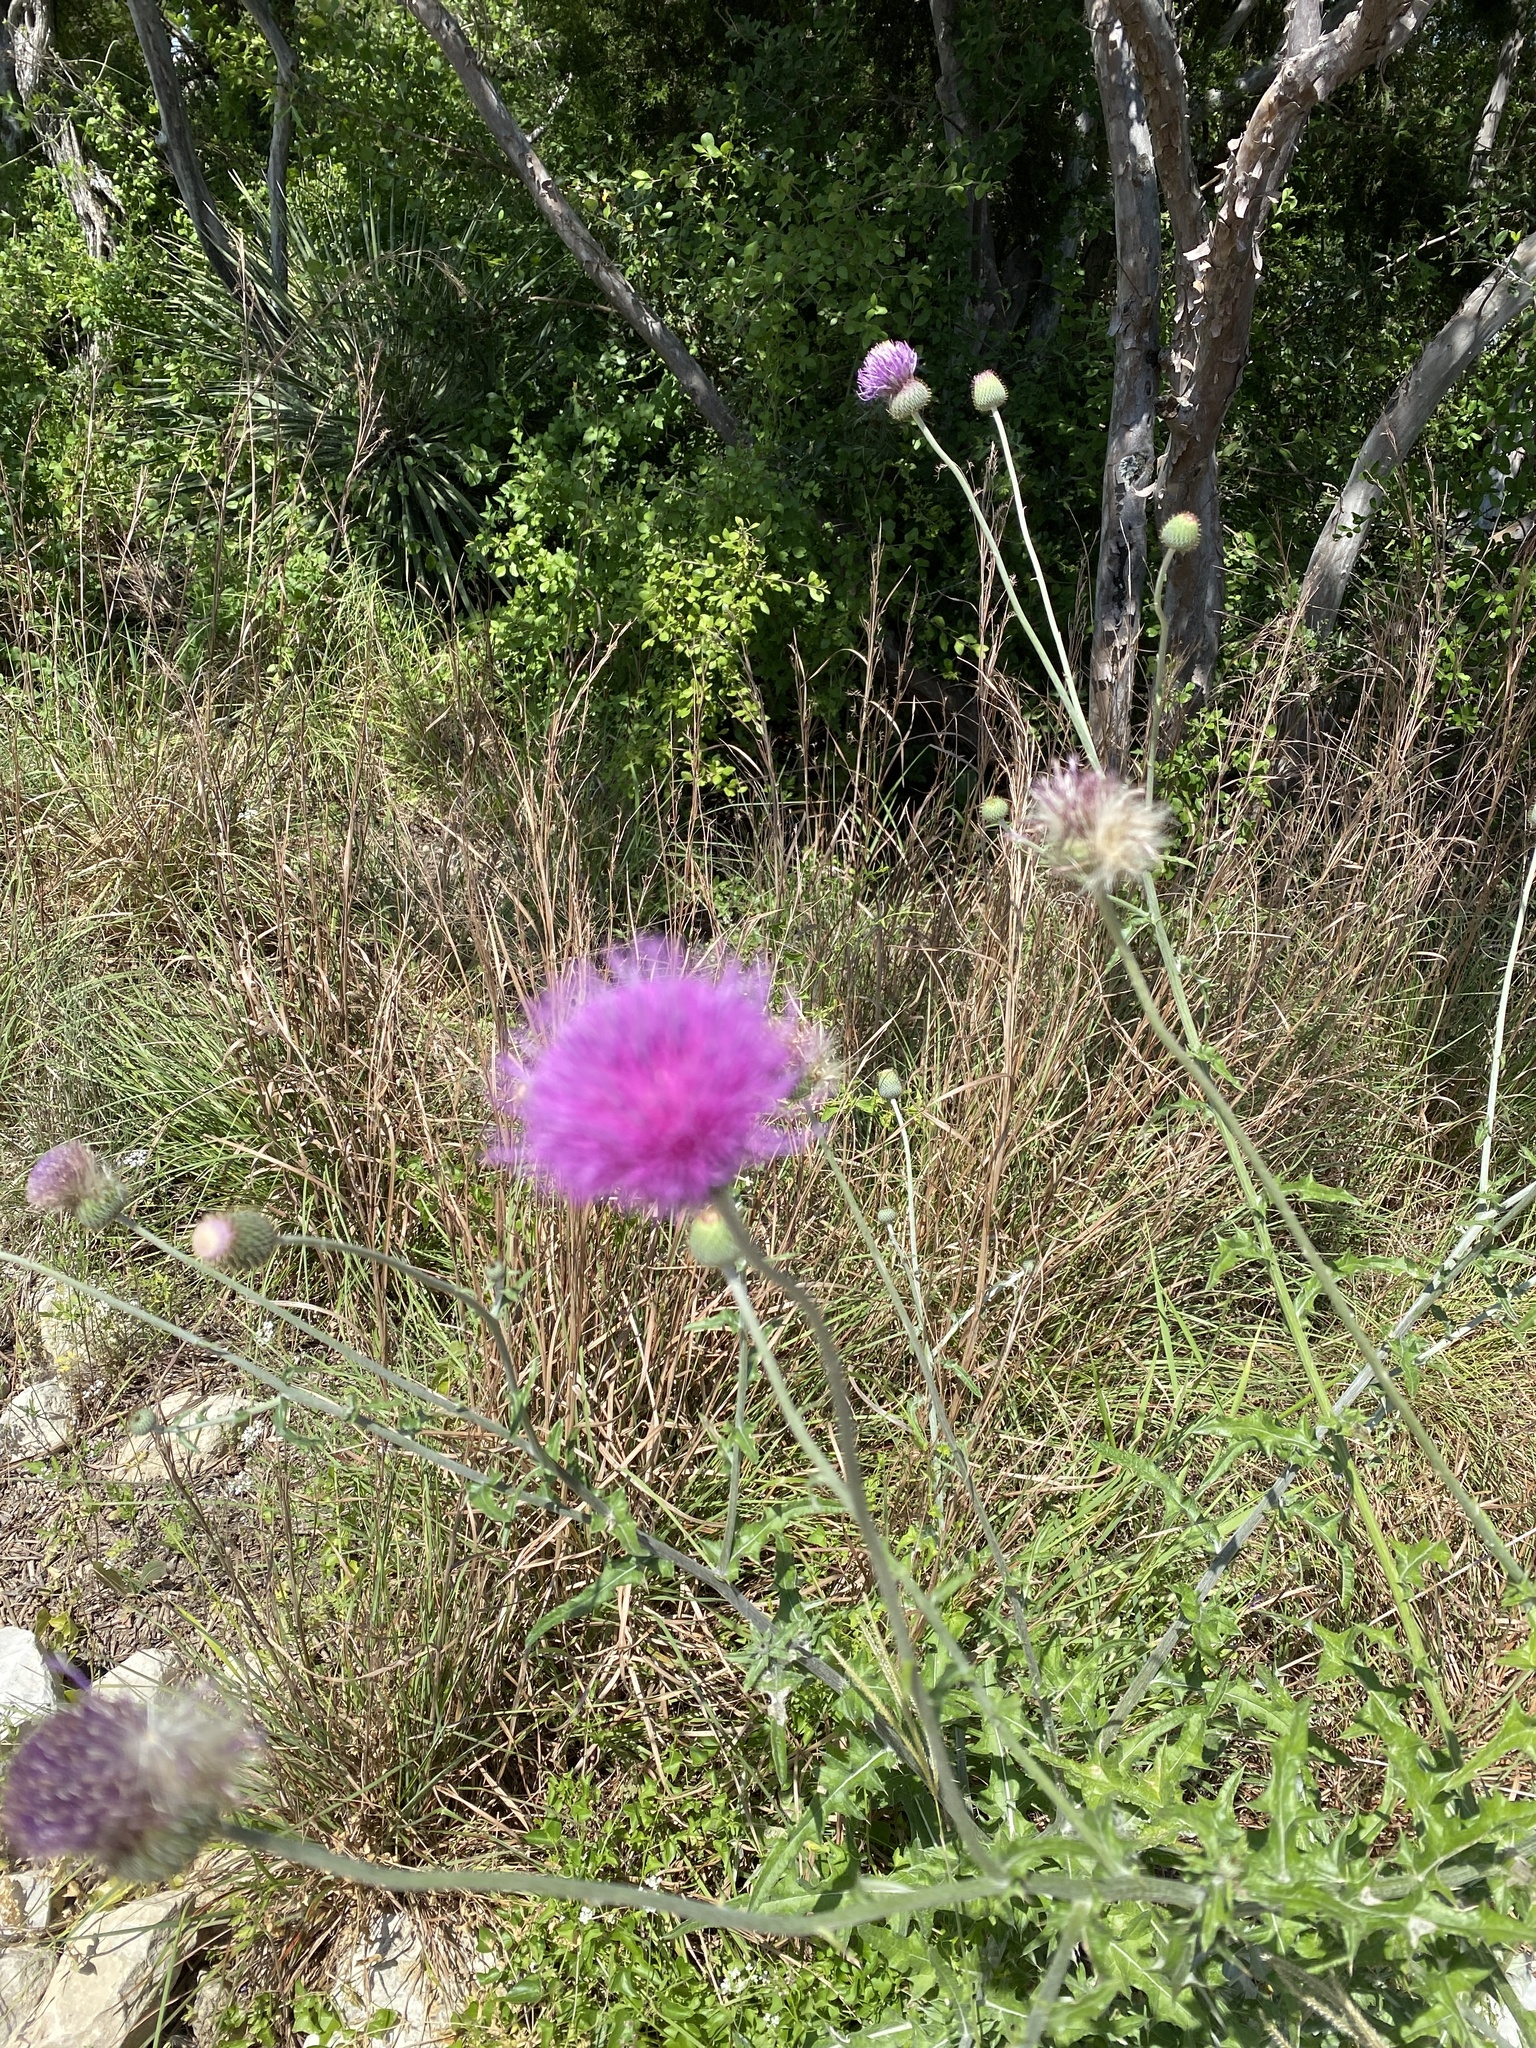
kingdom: Plantae
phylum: Tracheophyta
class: Magnoliopsida
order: Asterales
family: Asteraceae
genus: Cirsium
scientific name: Cirsium texanum
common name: Texas purple thistle
